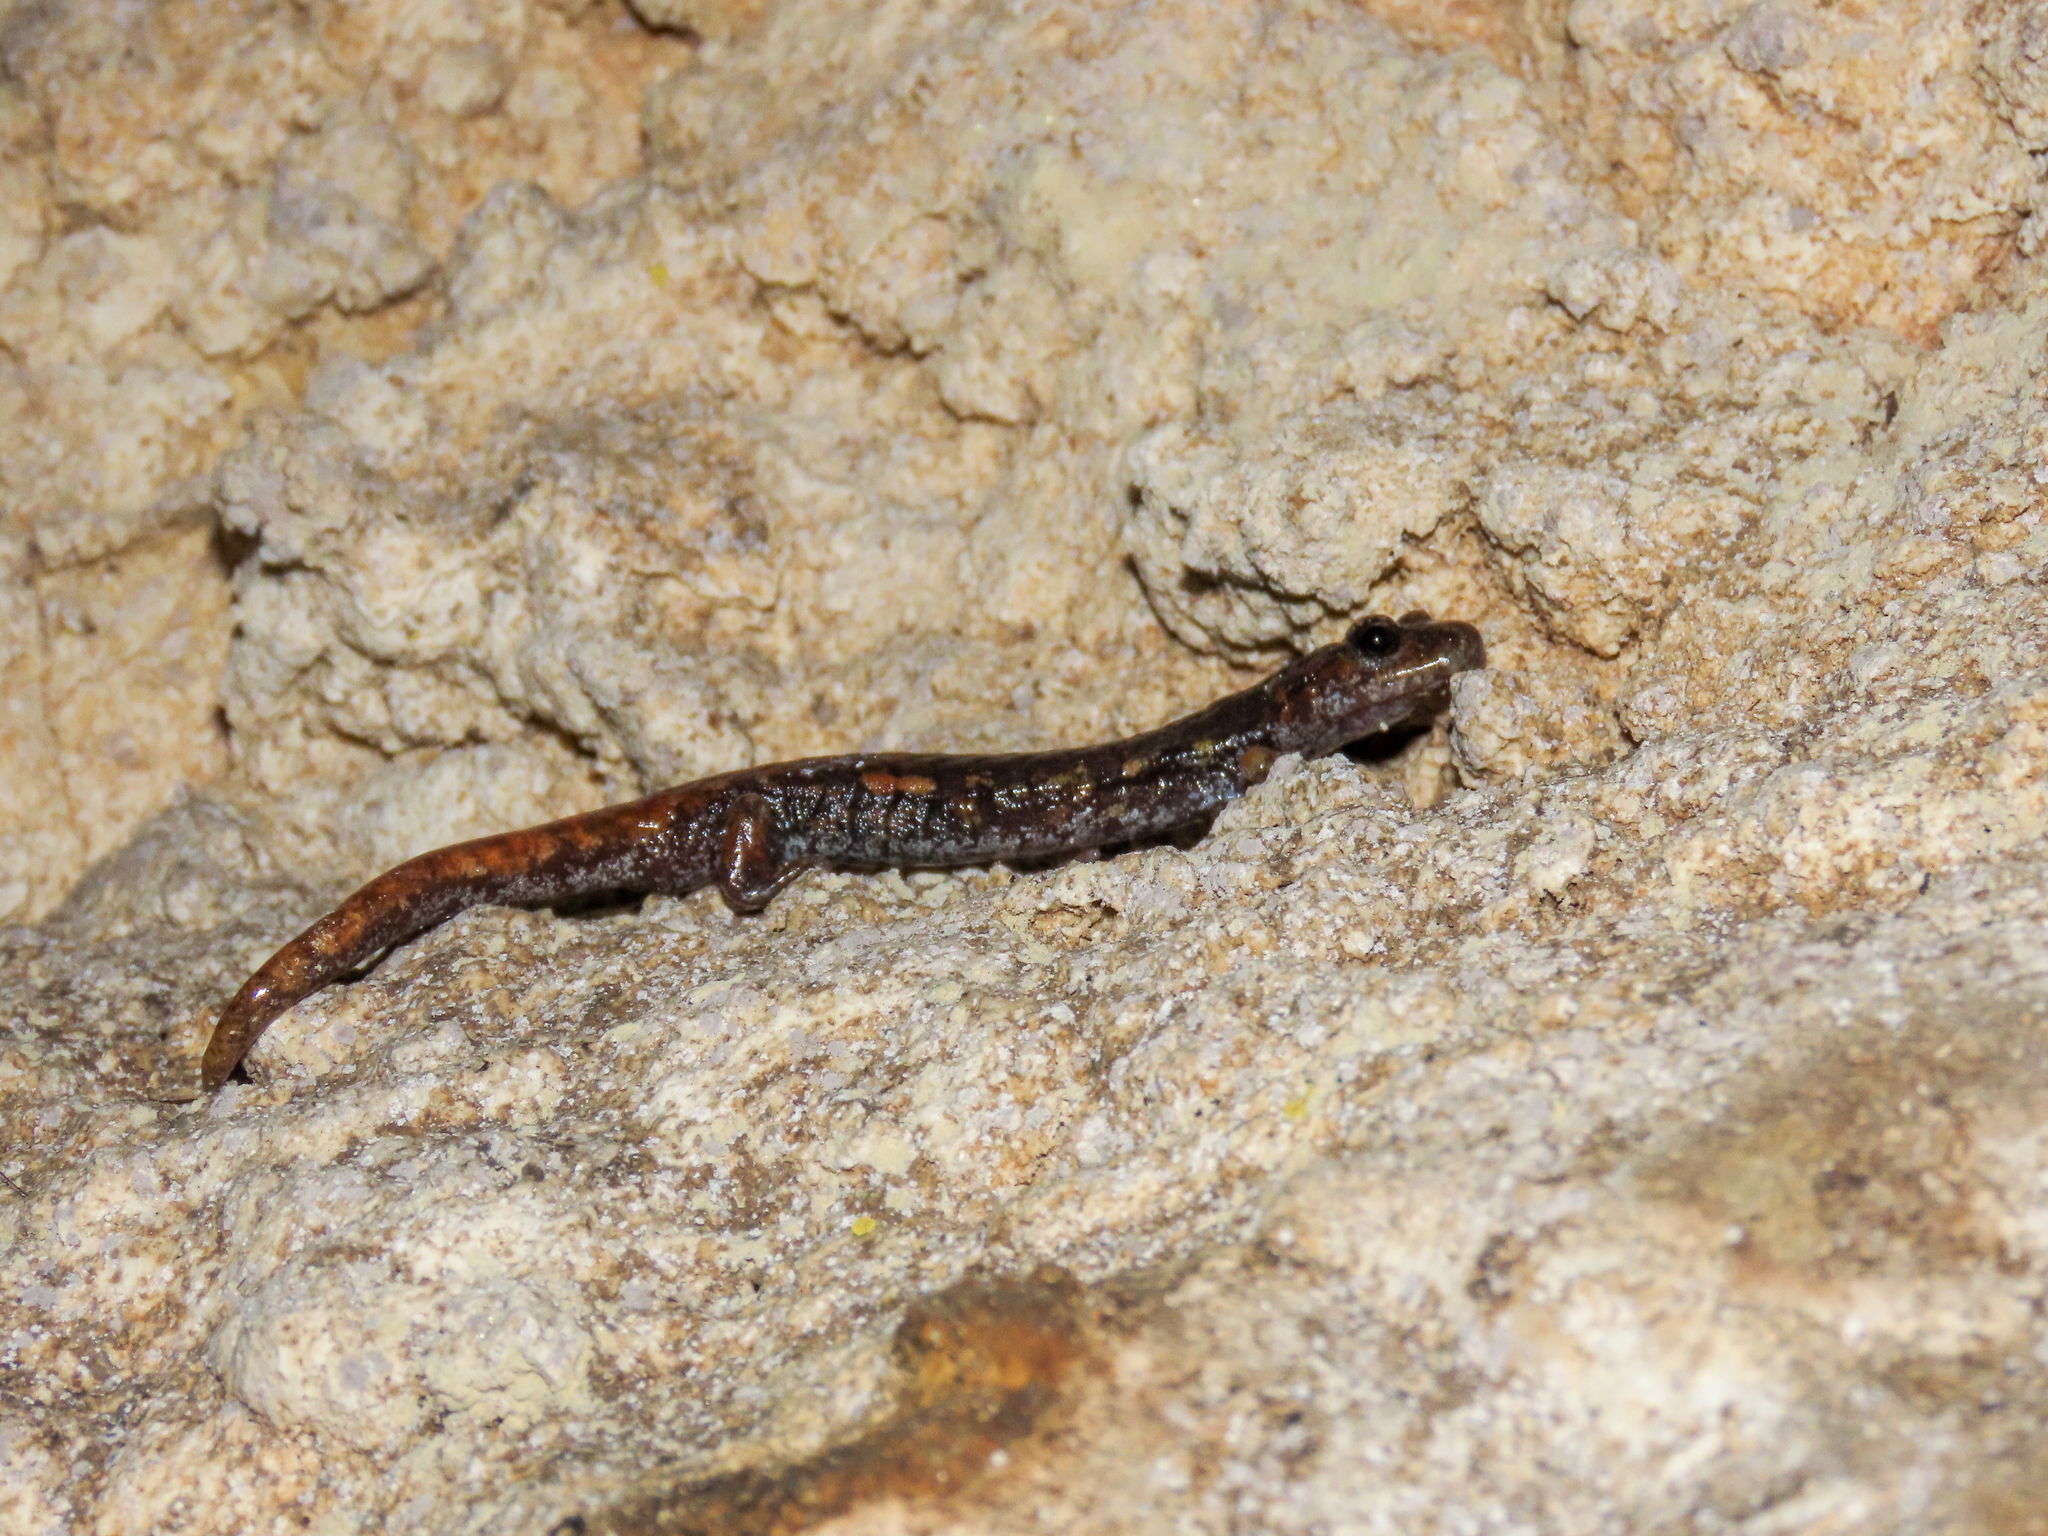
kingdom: Animalia
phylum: Chordata
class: Amphibia
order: Caudata
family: Plethodontidae
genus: Speleomantes
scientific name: Speleomantes italicus
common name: Italian cave salamander
